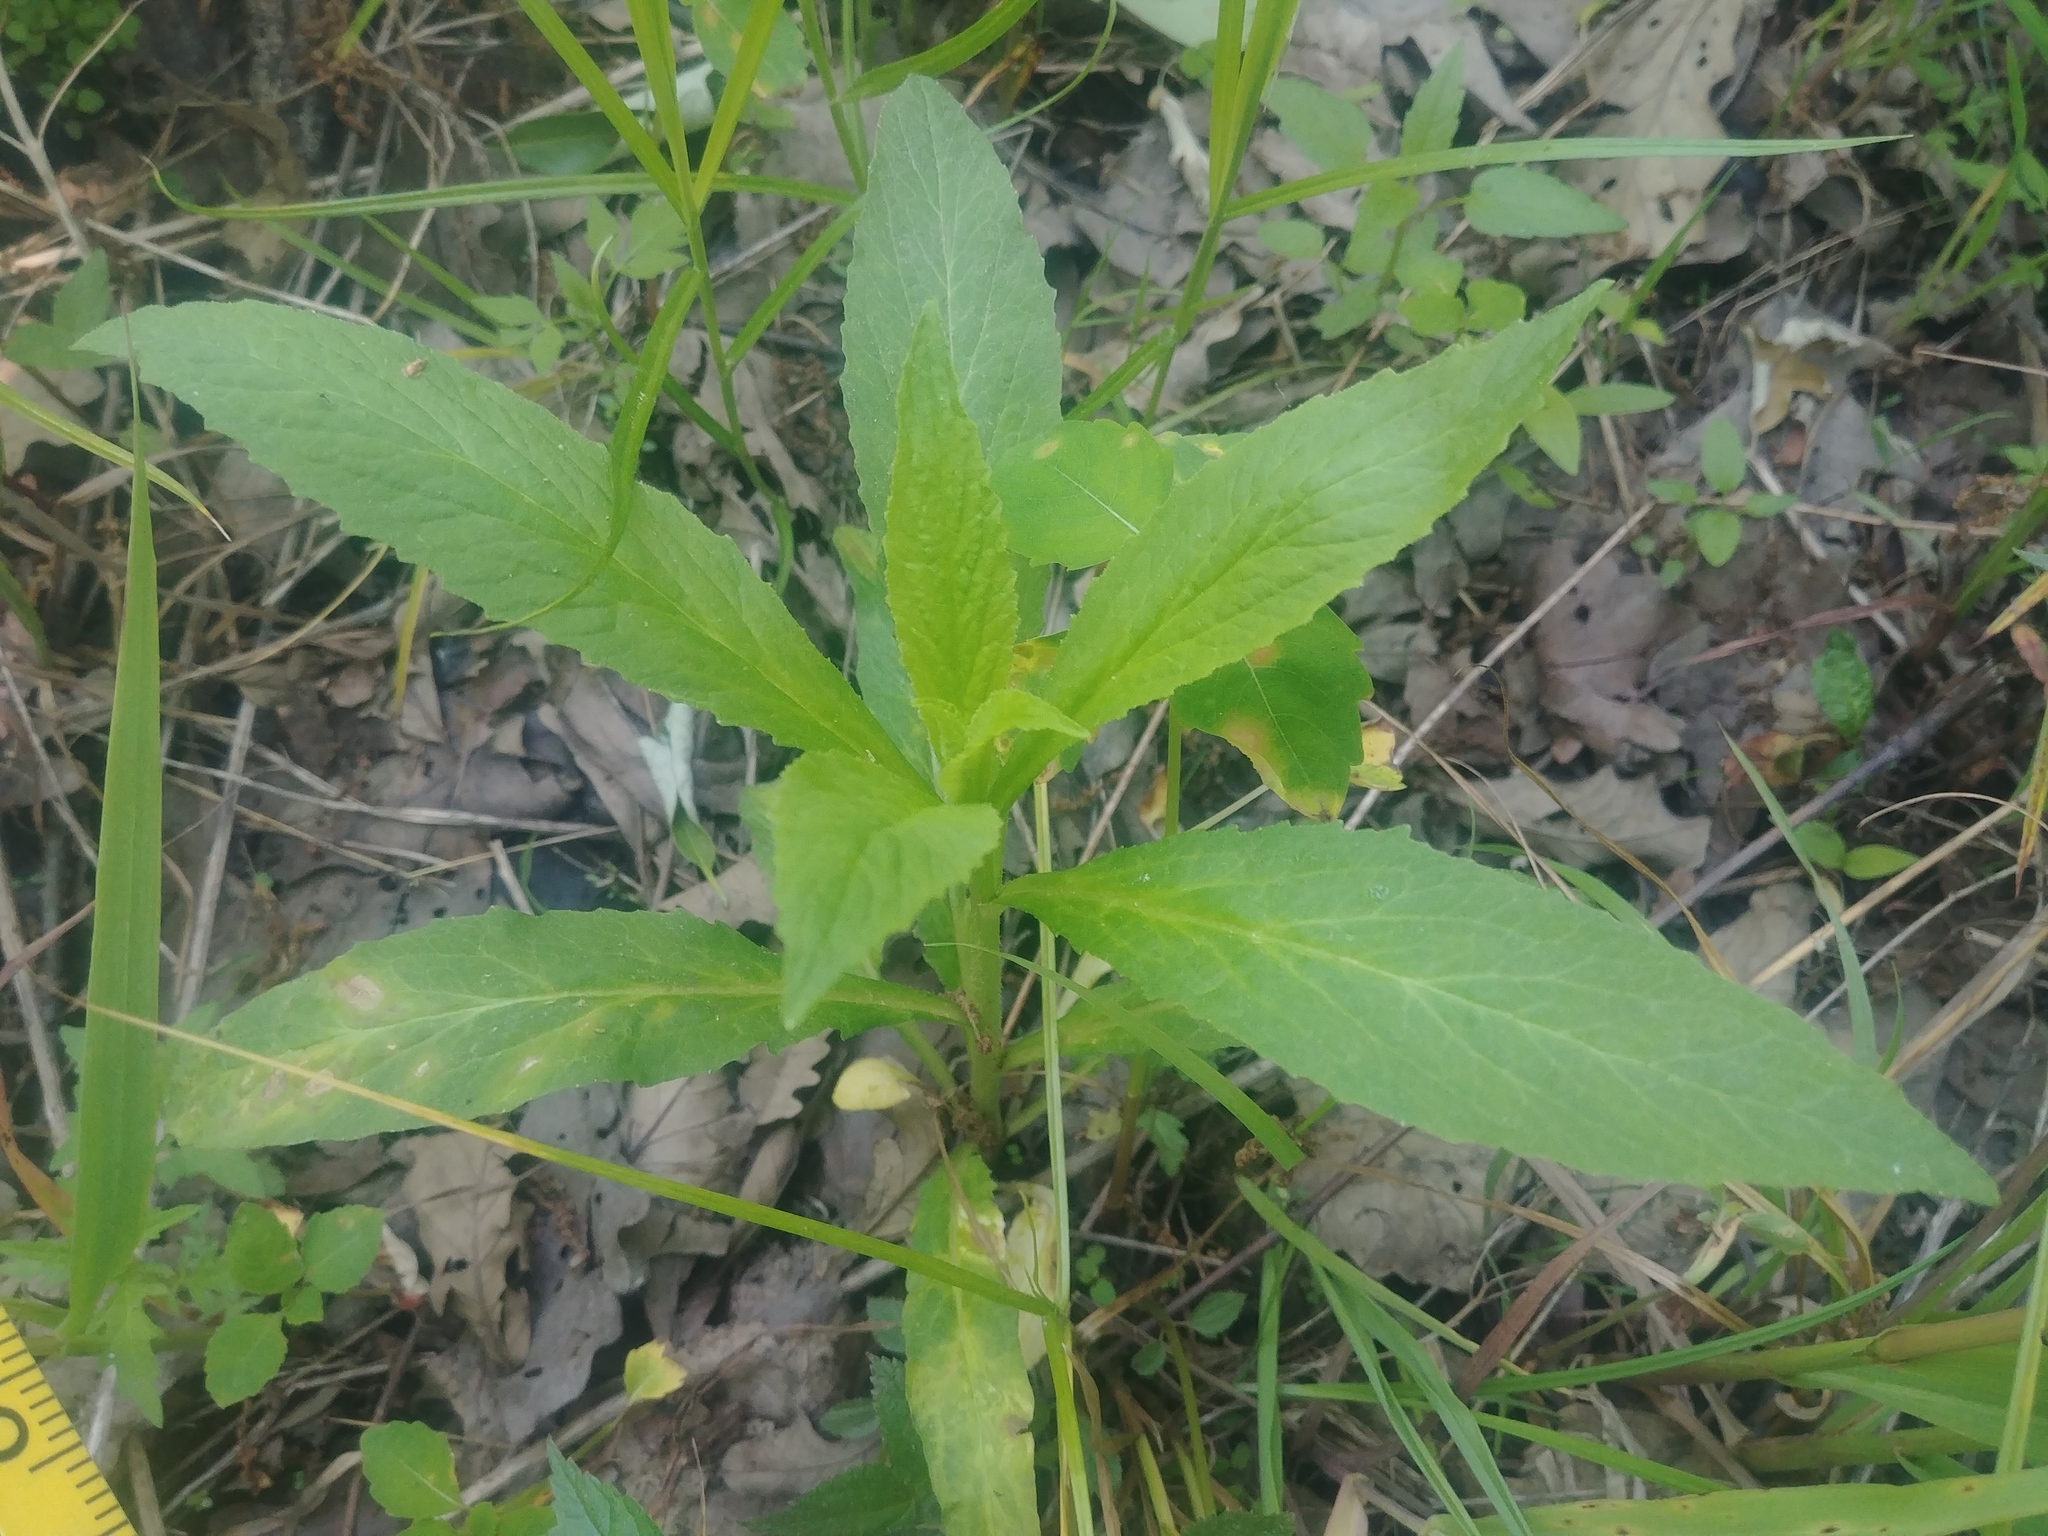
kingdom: Plantae
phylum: Tracheophyta
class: Magnoliopsida
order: Asterales
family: Campanulaceae
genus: Lobelia
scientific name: Lobelia siphilitica
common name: Great lobelia
